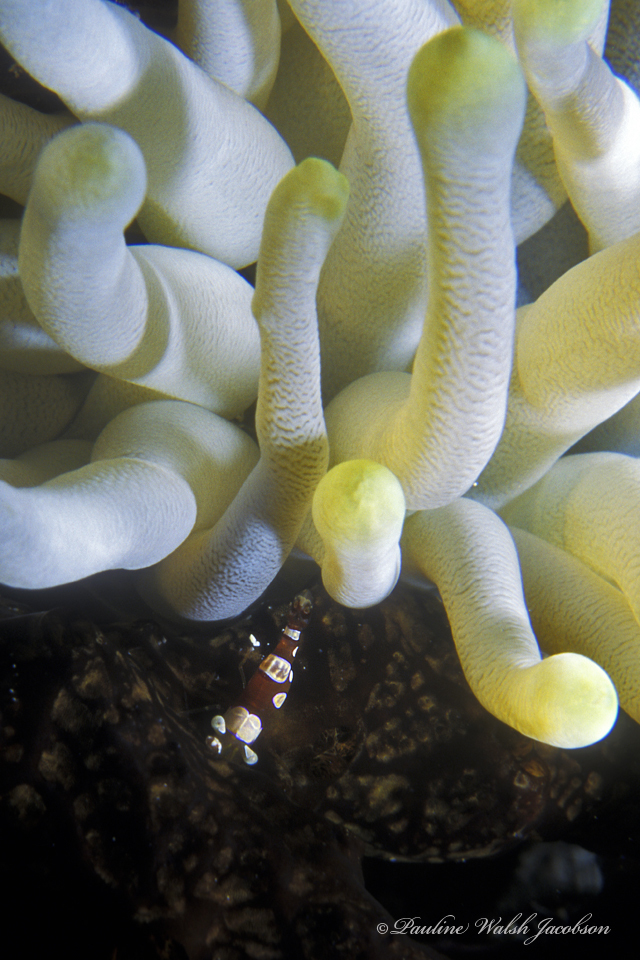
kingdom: Animalia
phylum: Arthropoda
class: Malacostraca
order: Decapoda
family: Thoridae
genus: Thor
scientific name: Thor dicaprio
